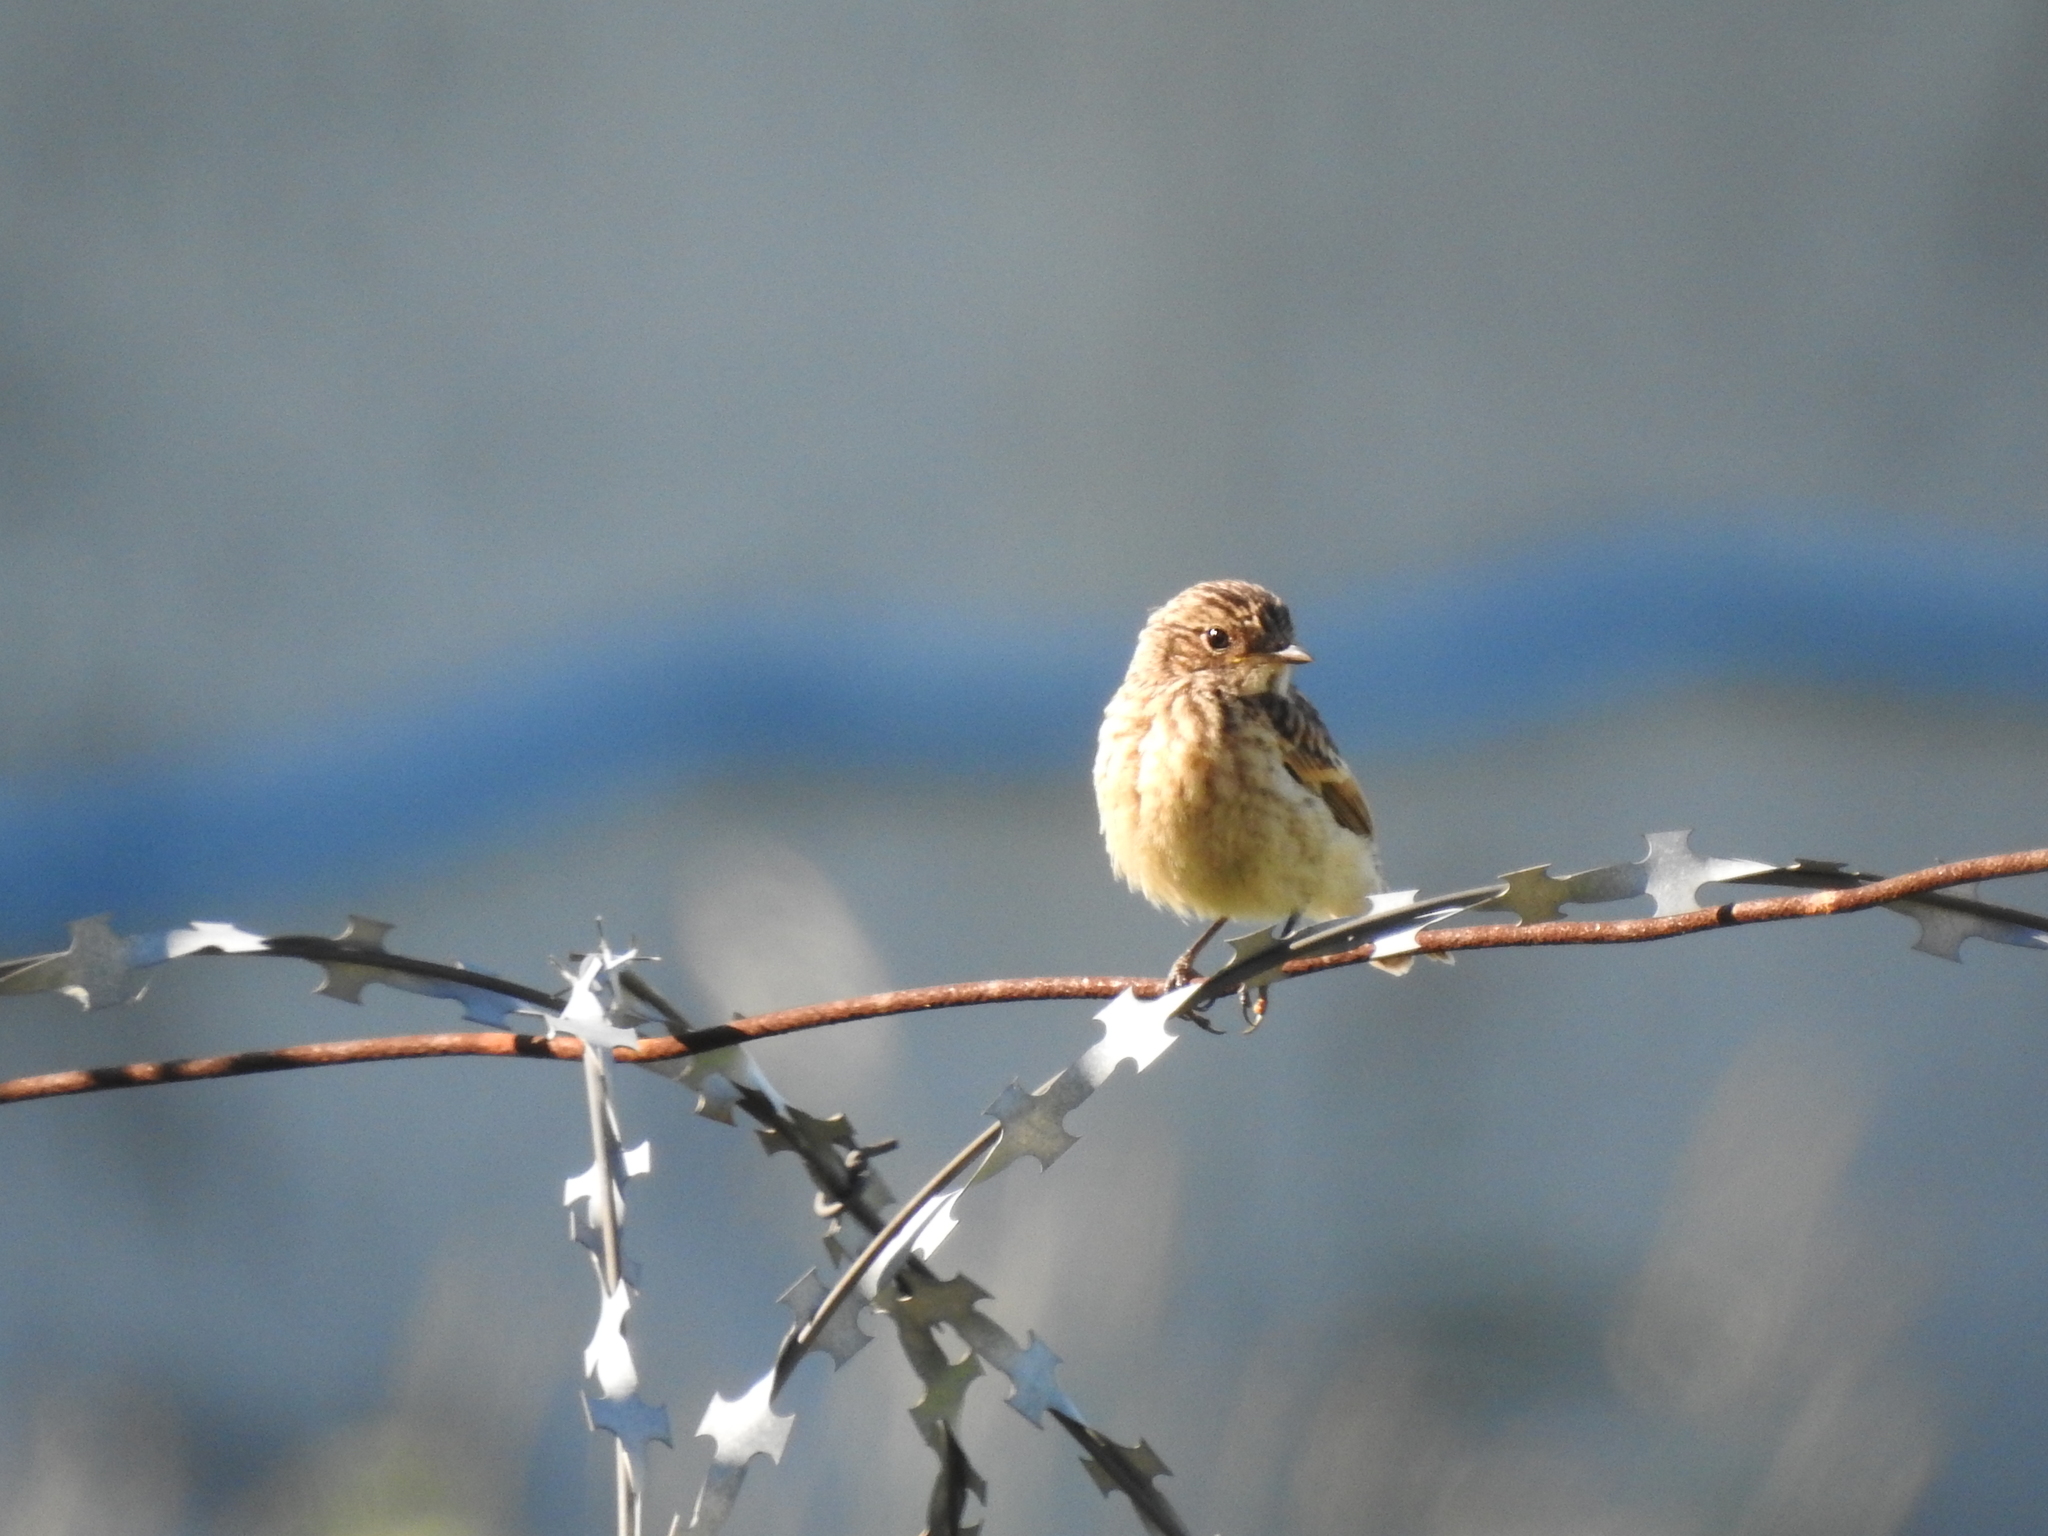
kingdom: Animalia
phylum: Chordata
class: Aves
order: Passeriformes
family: Muscicapidae
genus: Saxicola
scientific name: Saxicola maurus
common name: Siberian stonechat
